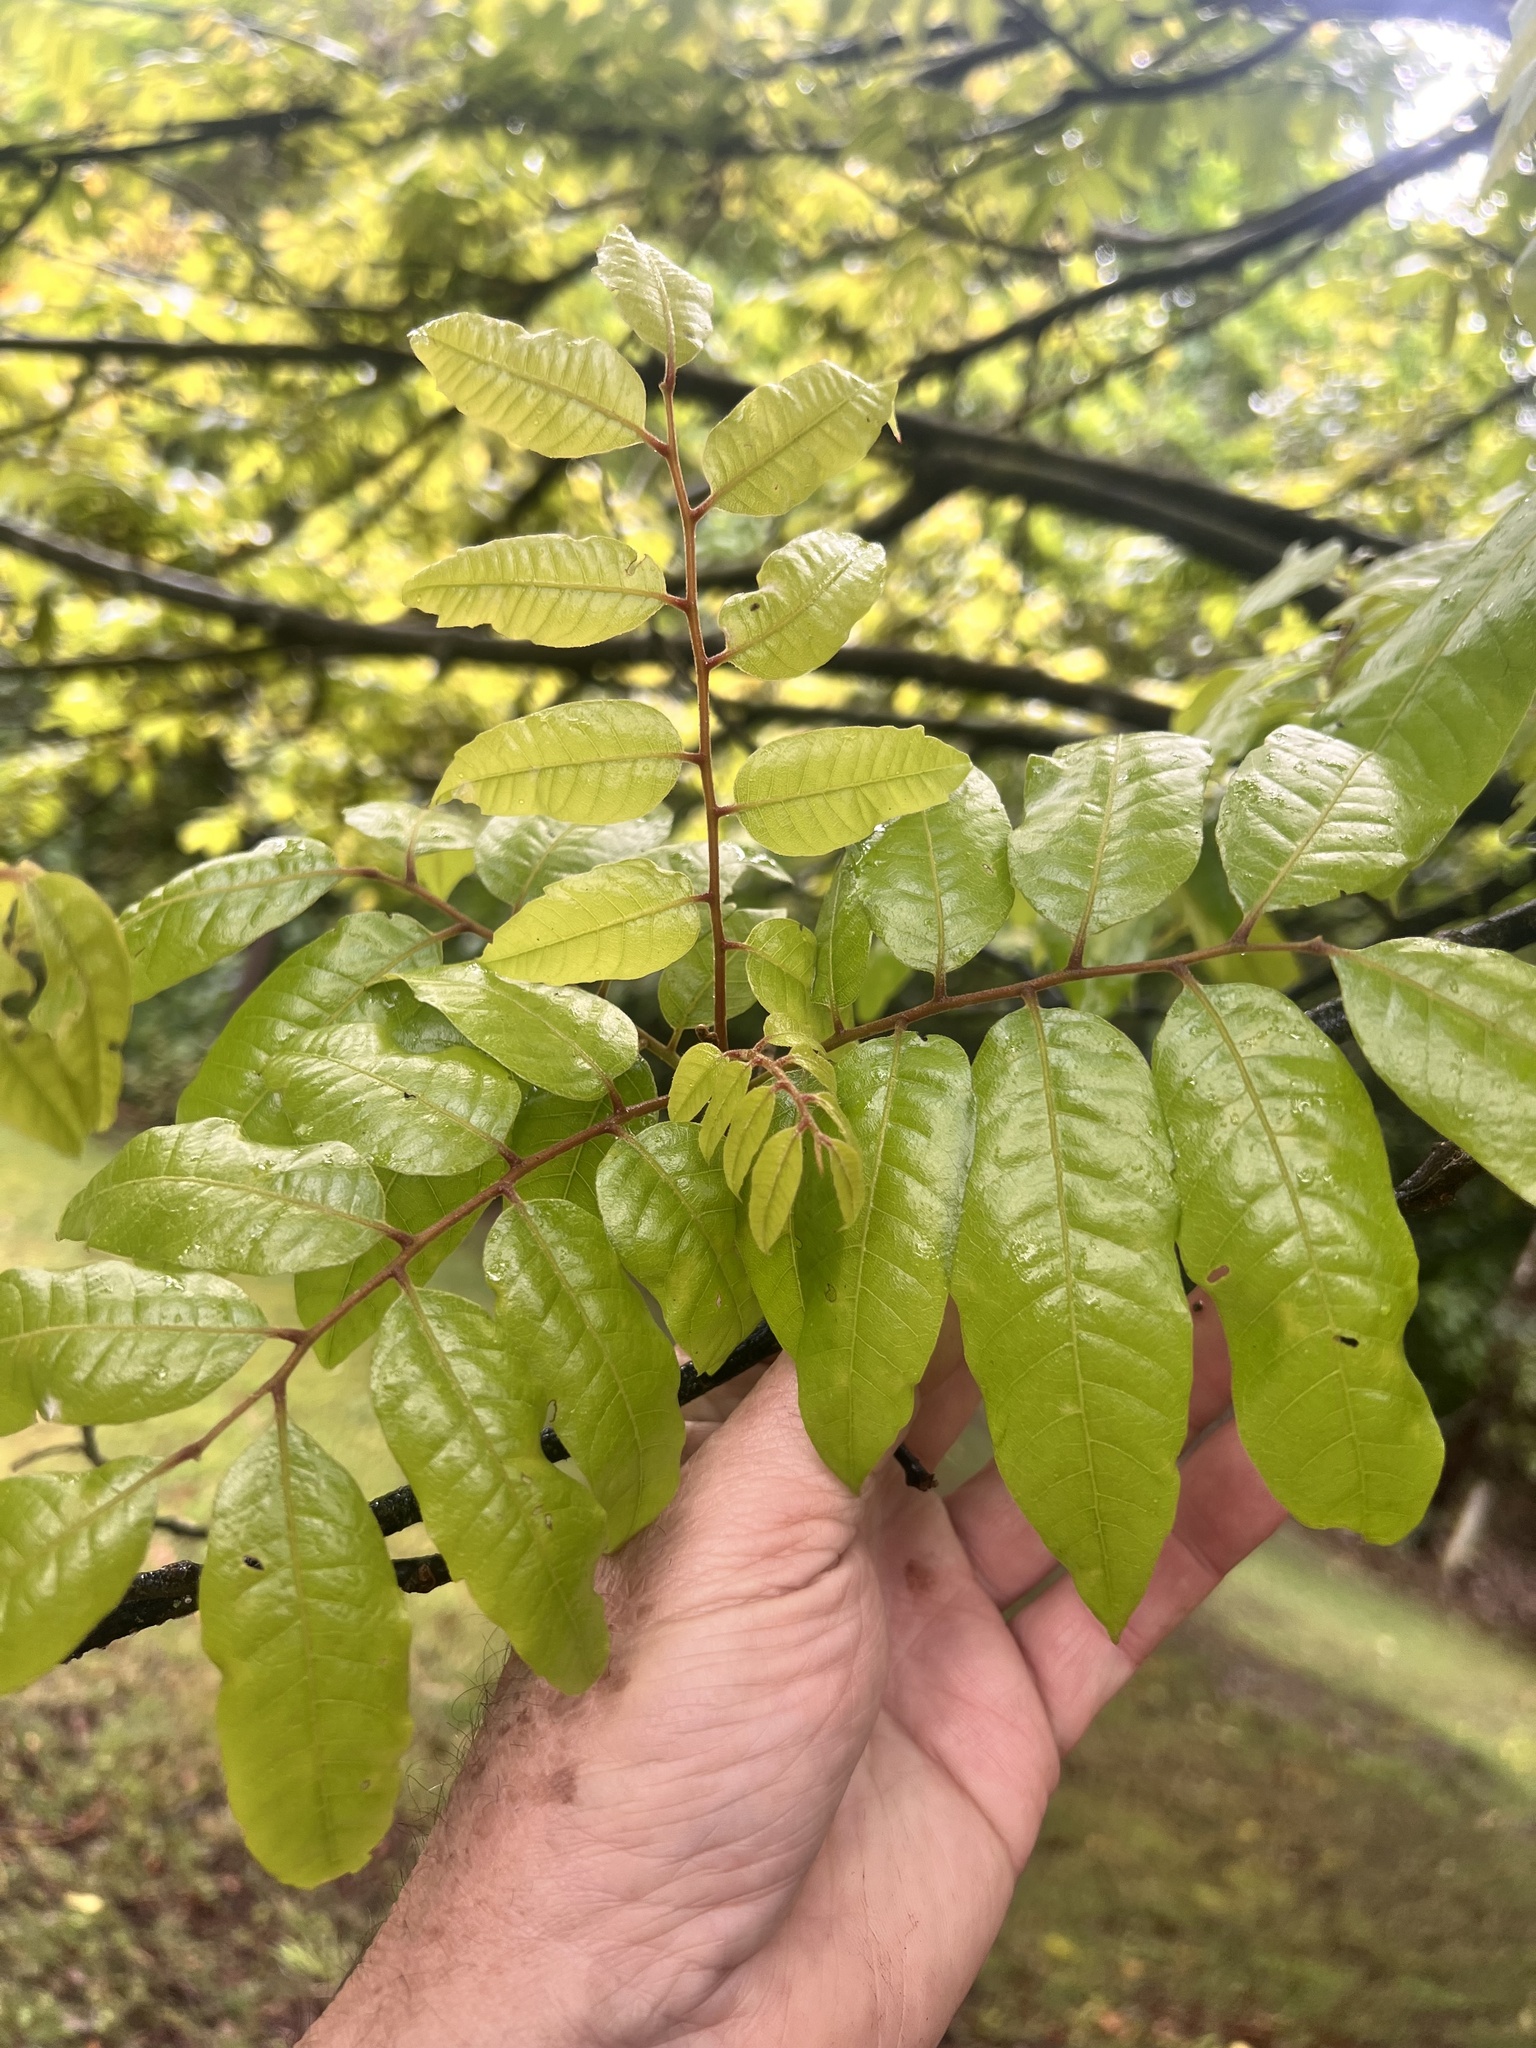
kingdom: Plantae
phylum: Tracheophyta
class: Magnoliopsida
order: Sapindales
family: Sapindaceae
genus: Alectryon
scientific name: Alectryon excelsus
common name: Three kings titoki
